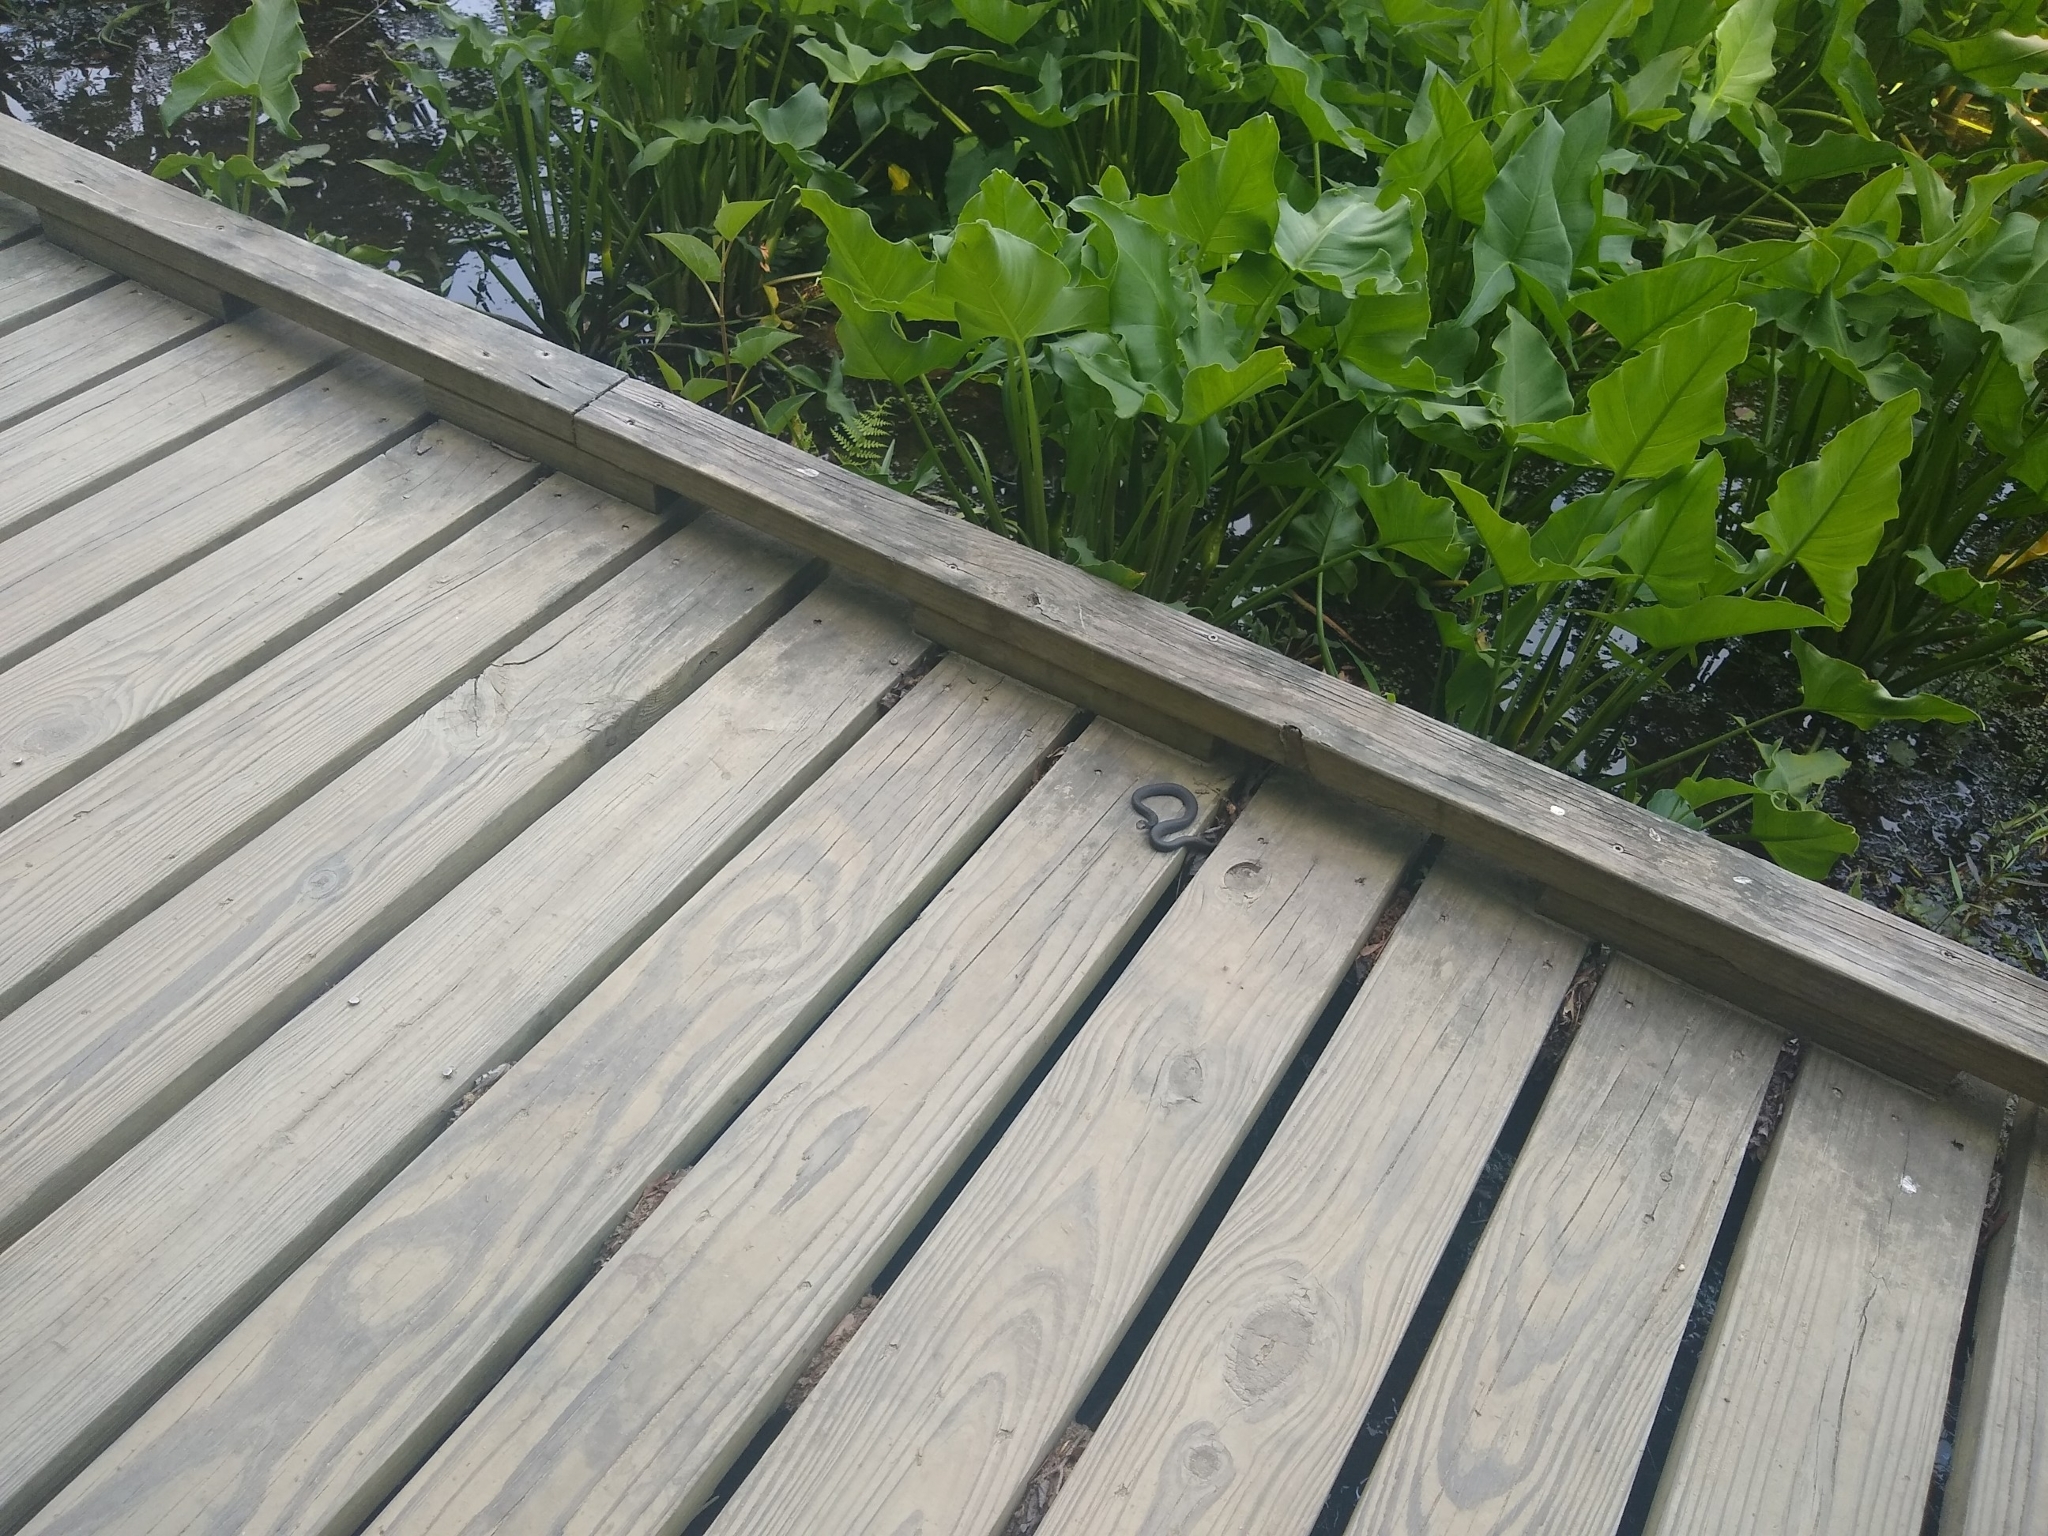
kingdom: Animalia
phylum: Chordata
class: Squamata
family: Colubridae
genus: Coluber
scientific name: Coluber constrictor
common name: Eastern racer
